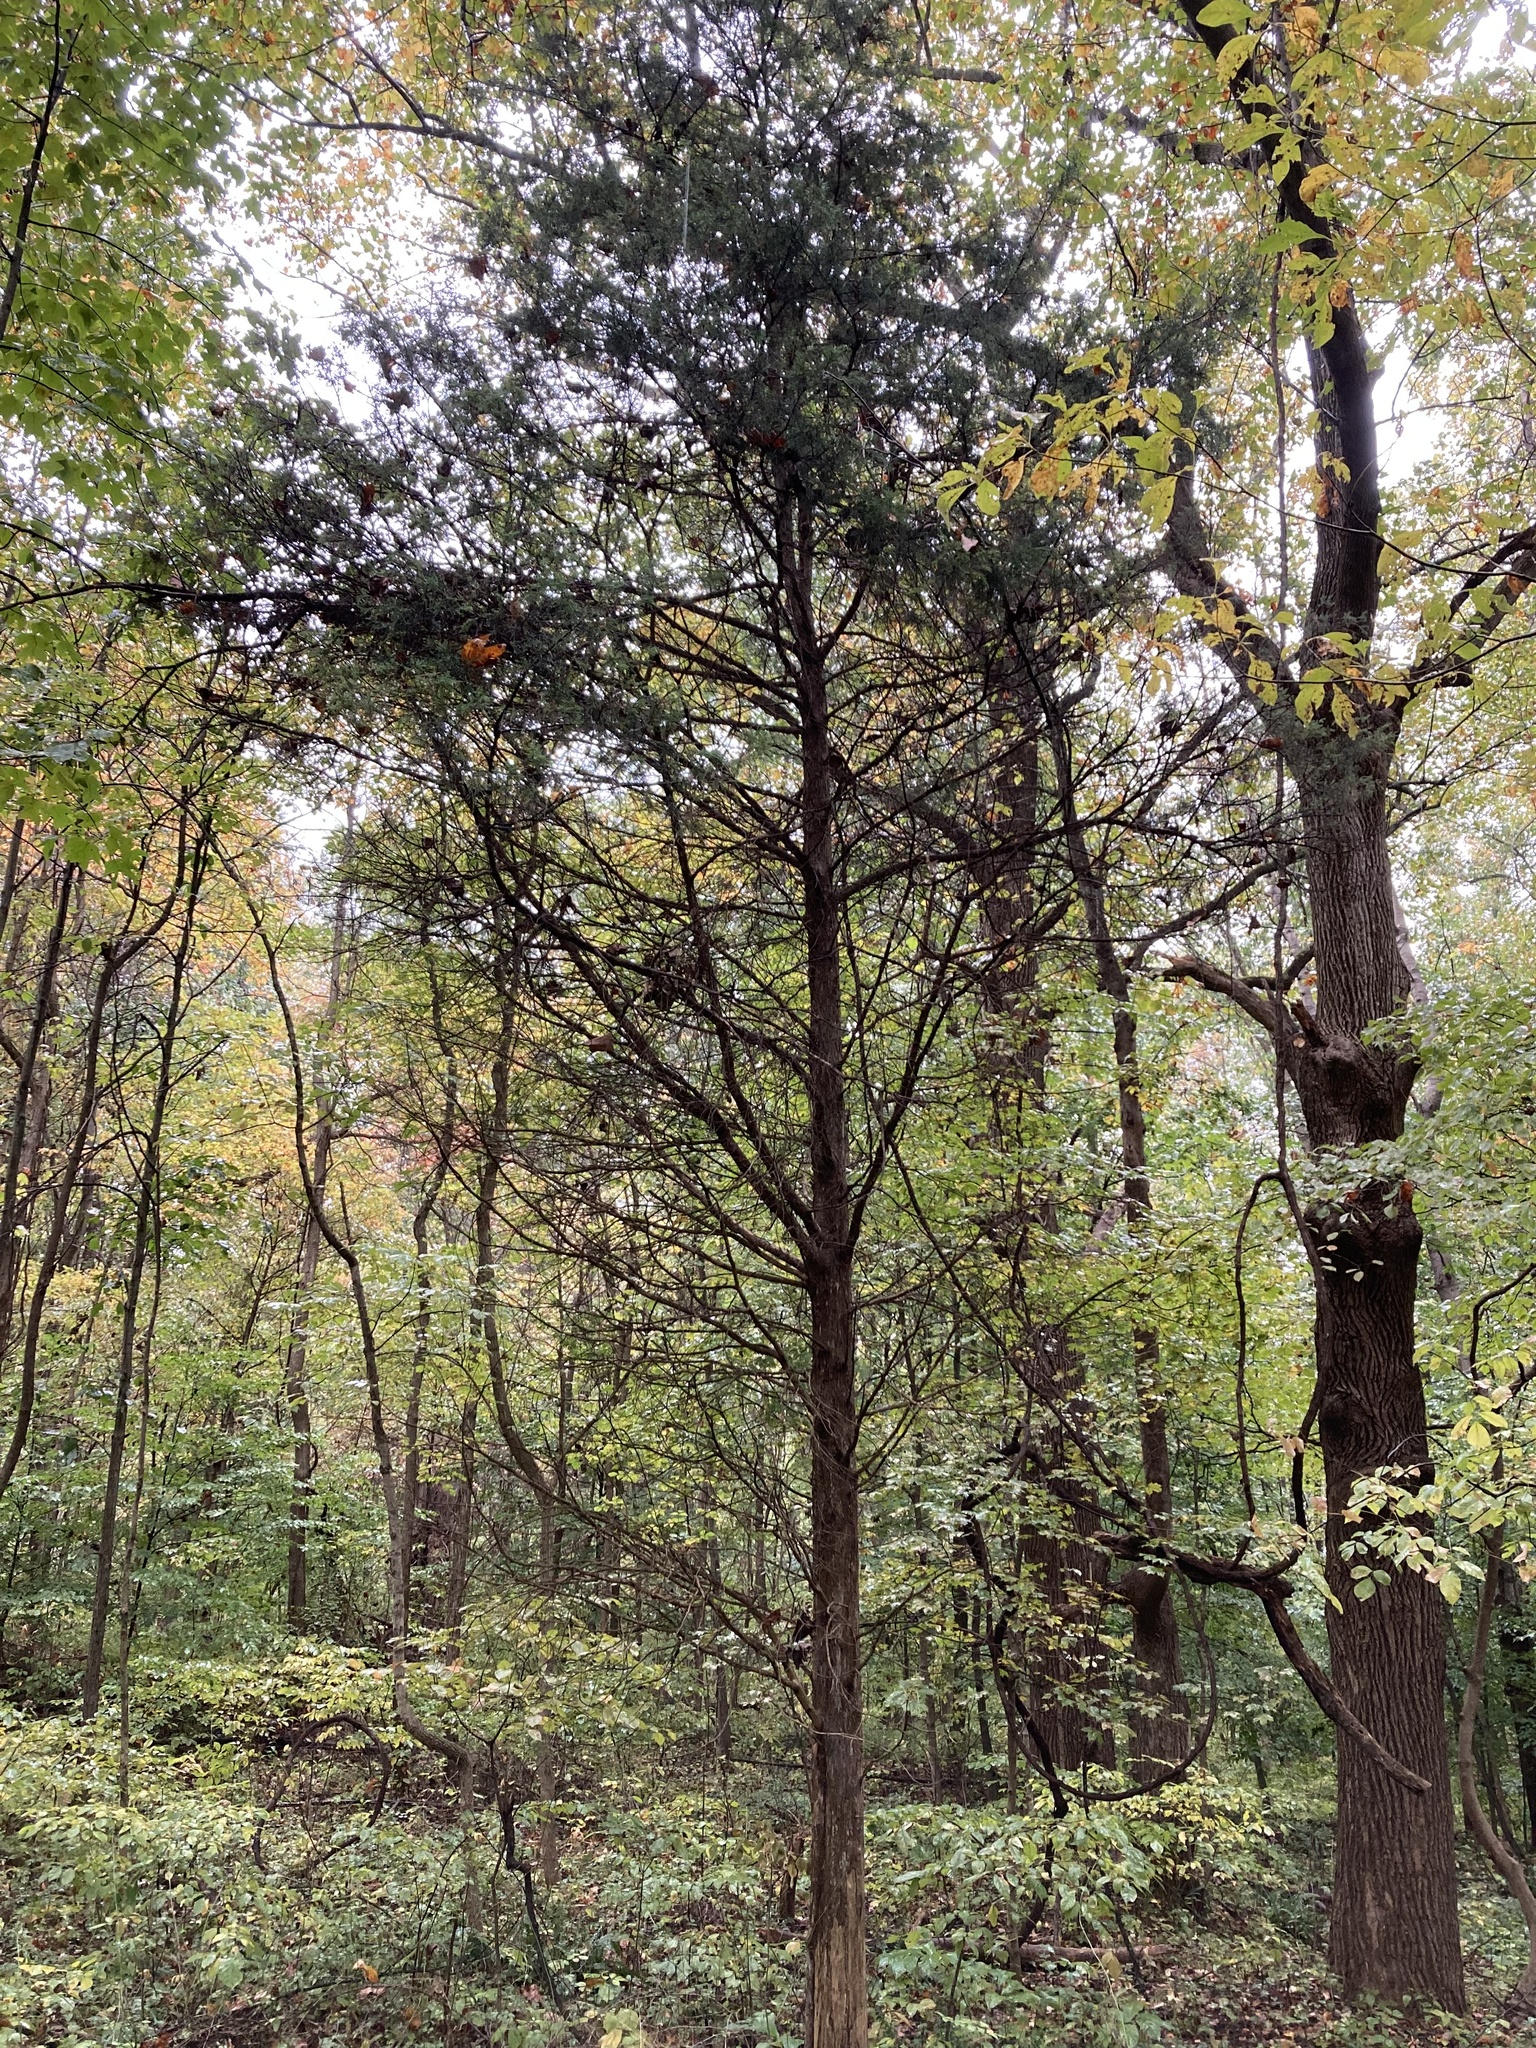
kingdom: Plantae
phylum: Tracheophyta
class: Pinopsida
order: Pinales
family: Cupressaceae
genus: Juniperus
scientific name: Juniperus virginiana
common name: Red juniper
